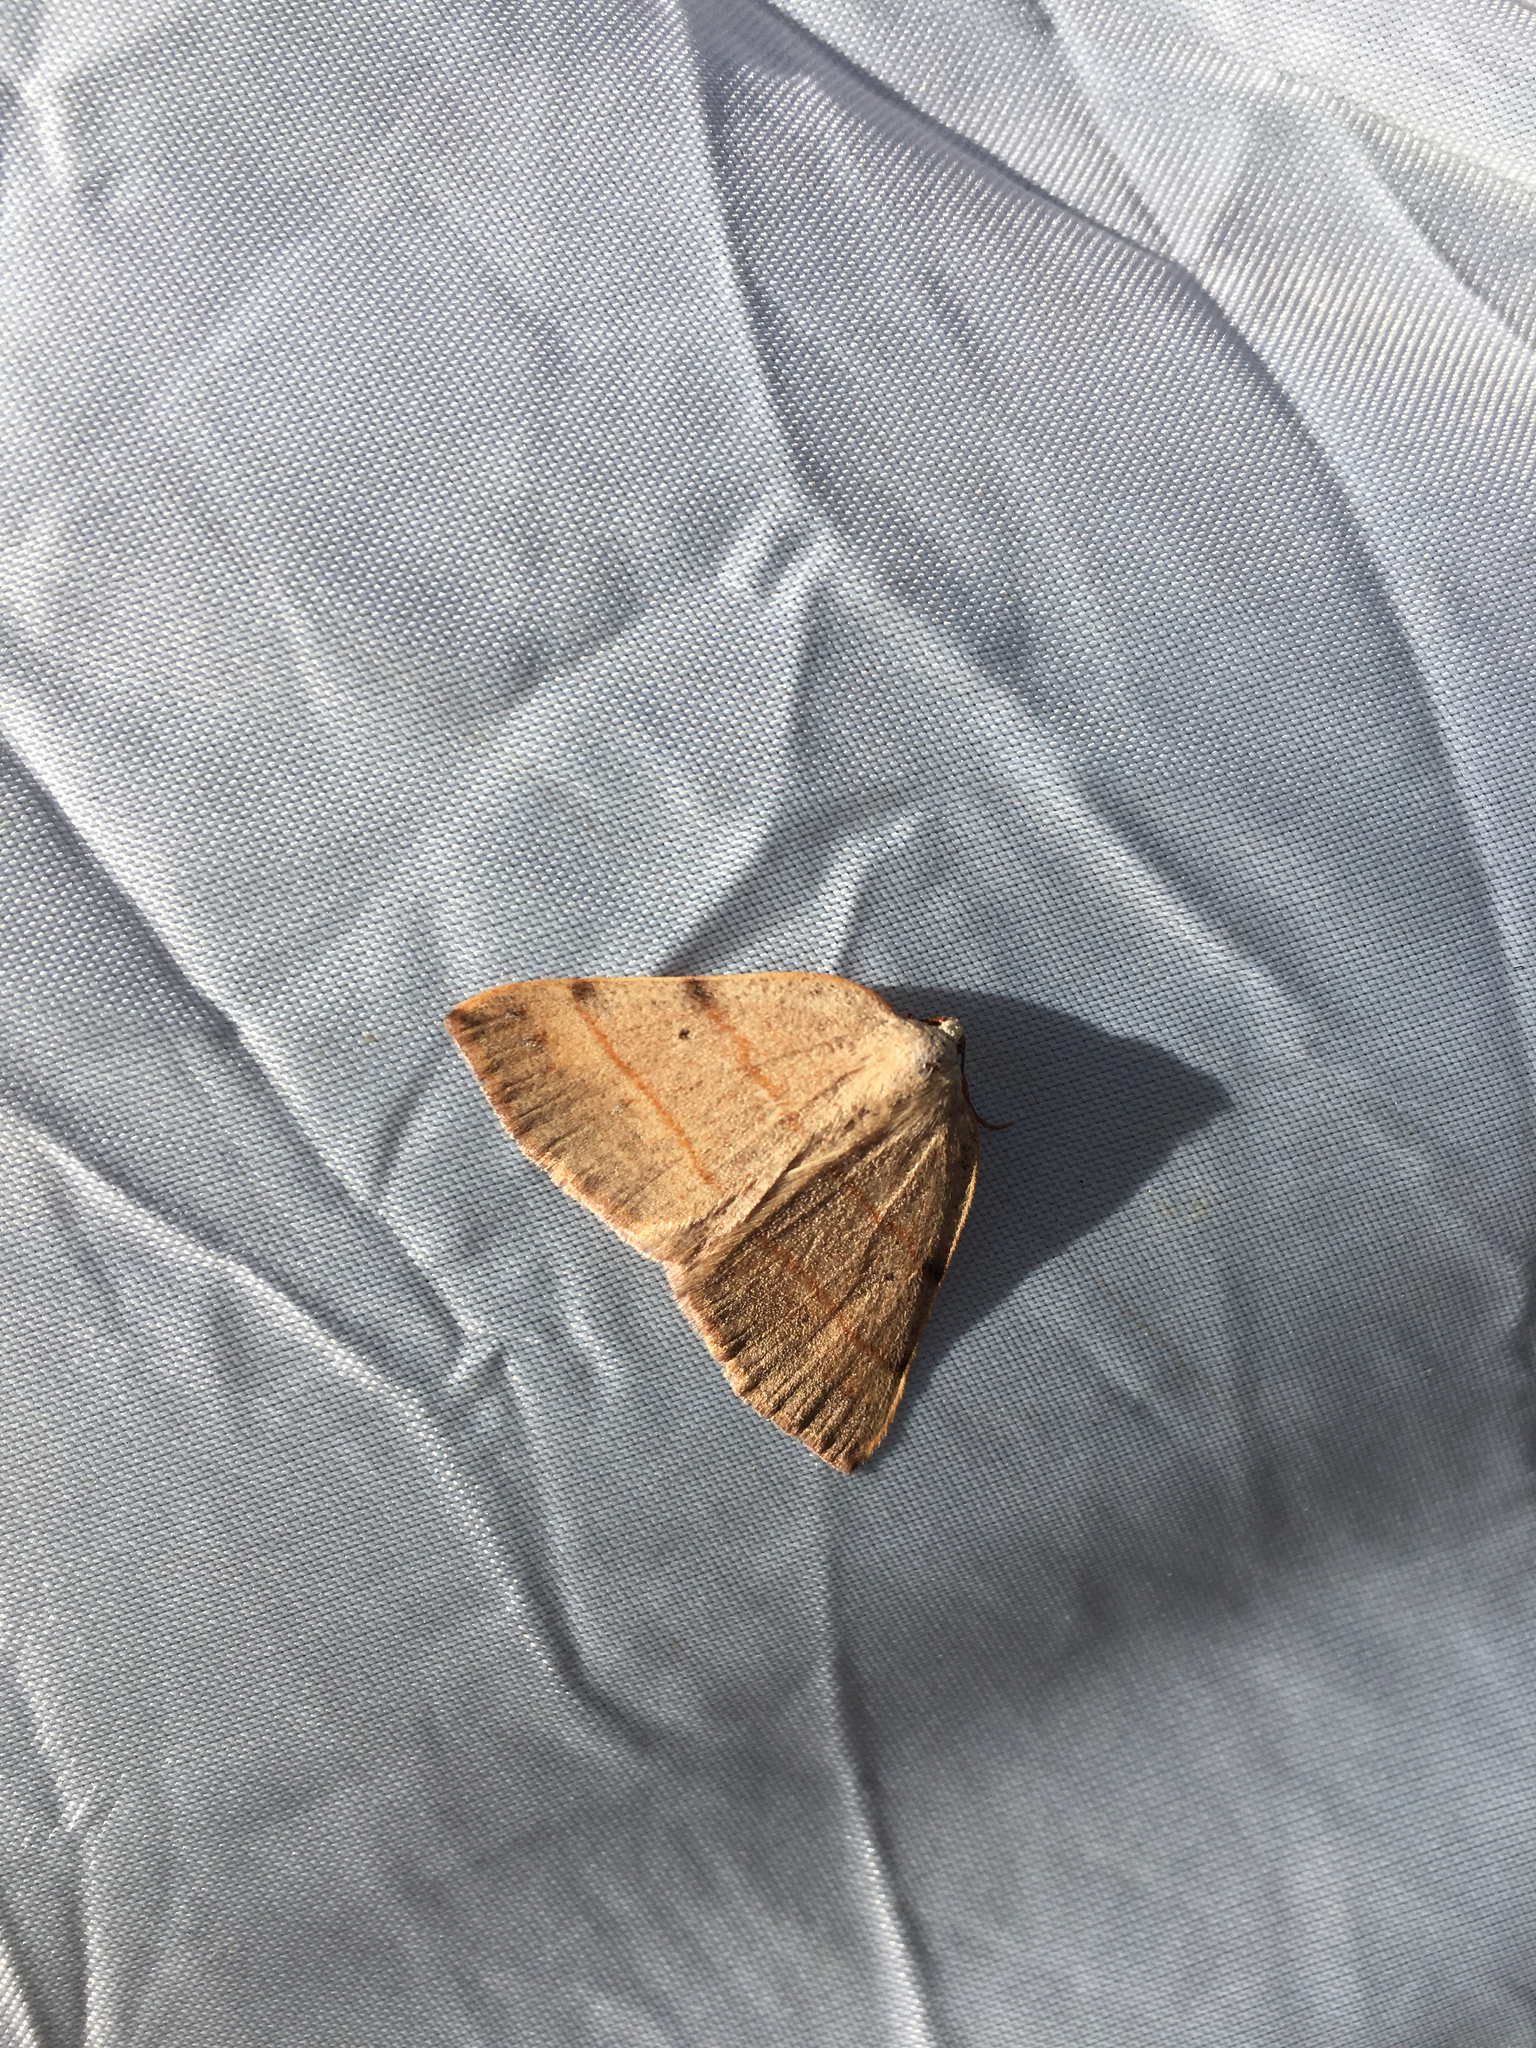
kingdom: Animalia
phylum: Arthropoda
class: Insecta
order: Lepidoptera
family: Geometridae
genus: Drepanulatrix
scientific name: Drepanulatrix bifilata
